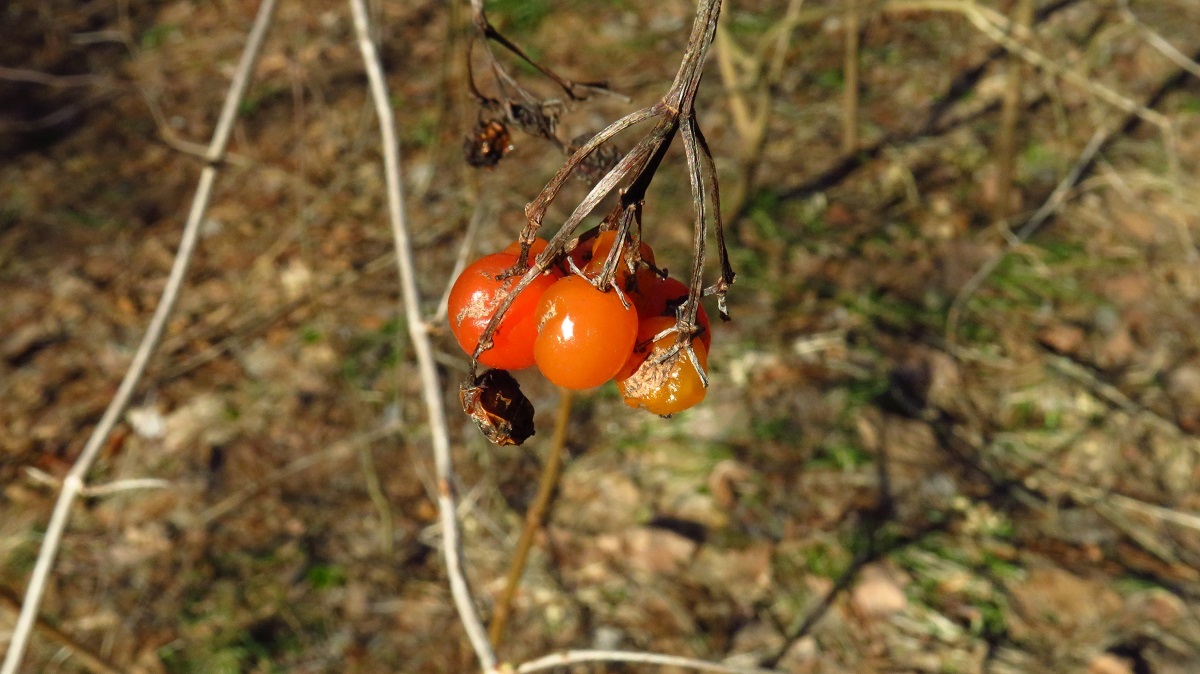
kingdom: Plantae
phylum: Tracheophyta
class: Magnoliopsida
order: Dipsacales
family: Viburnaceae
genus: Viburnum
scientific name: Viburnum opulus
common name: Guelder-rose
